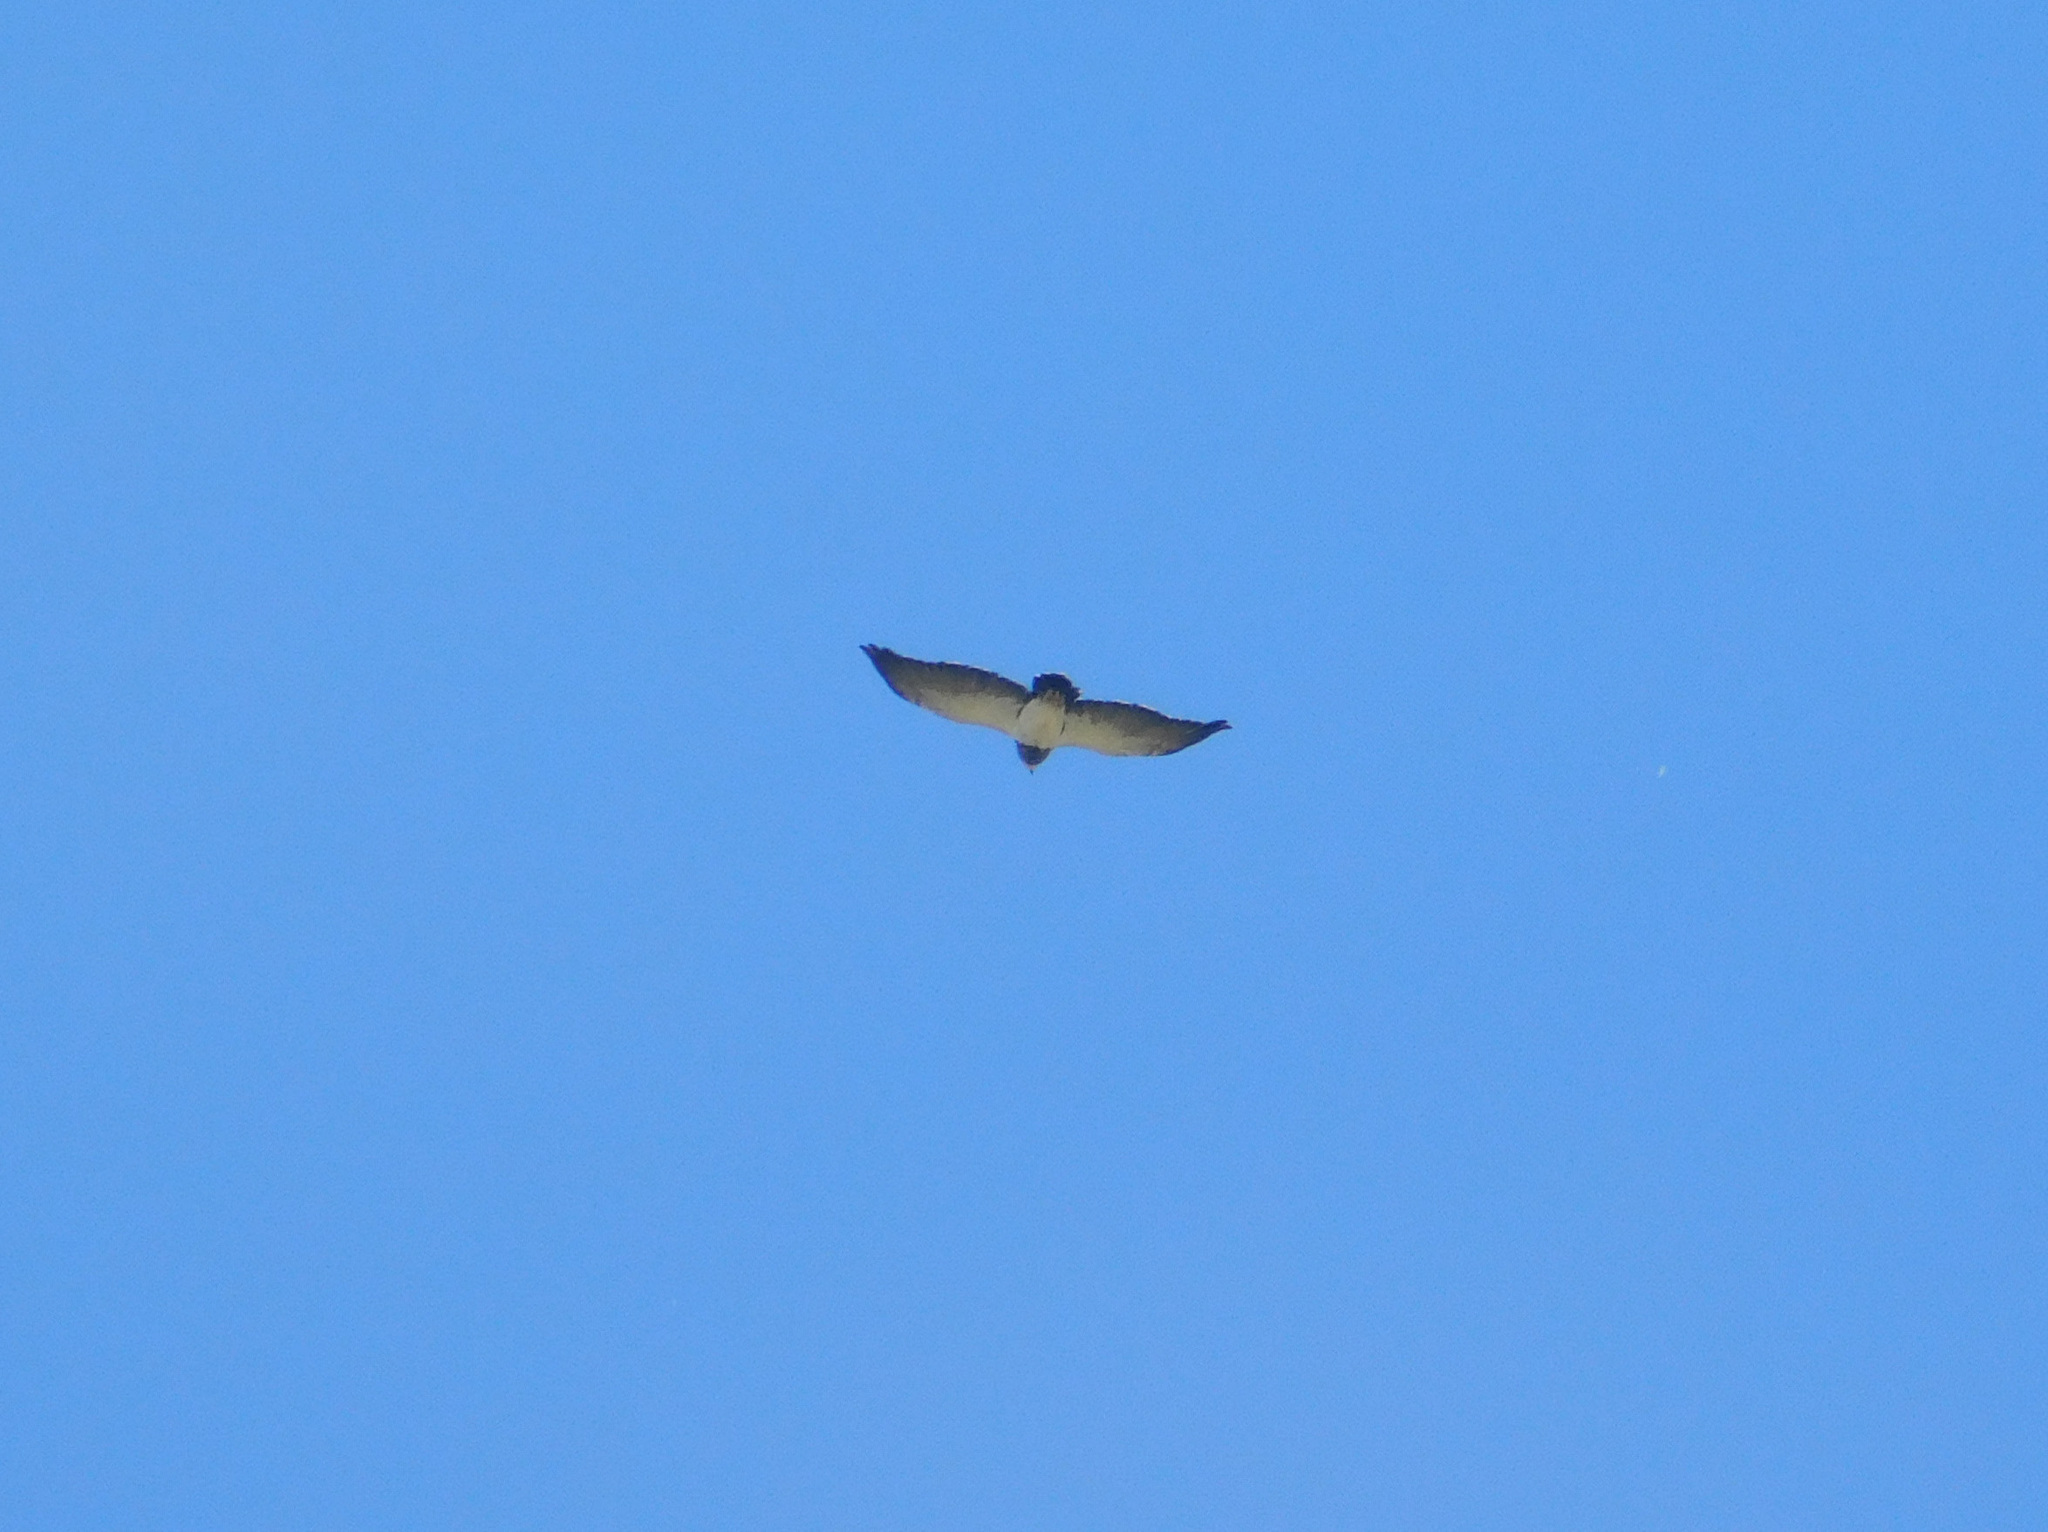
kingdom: Animalia
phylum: Chordata
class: Aves
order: Accipitriformes
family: Accipitridae
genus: Geranoaetus
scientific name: Geranoaetus melanoleucus
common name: Black-chested buzzard-eagle
